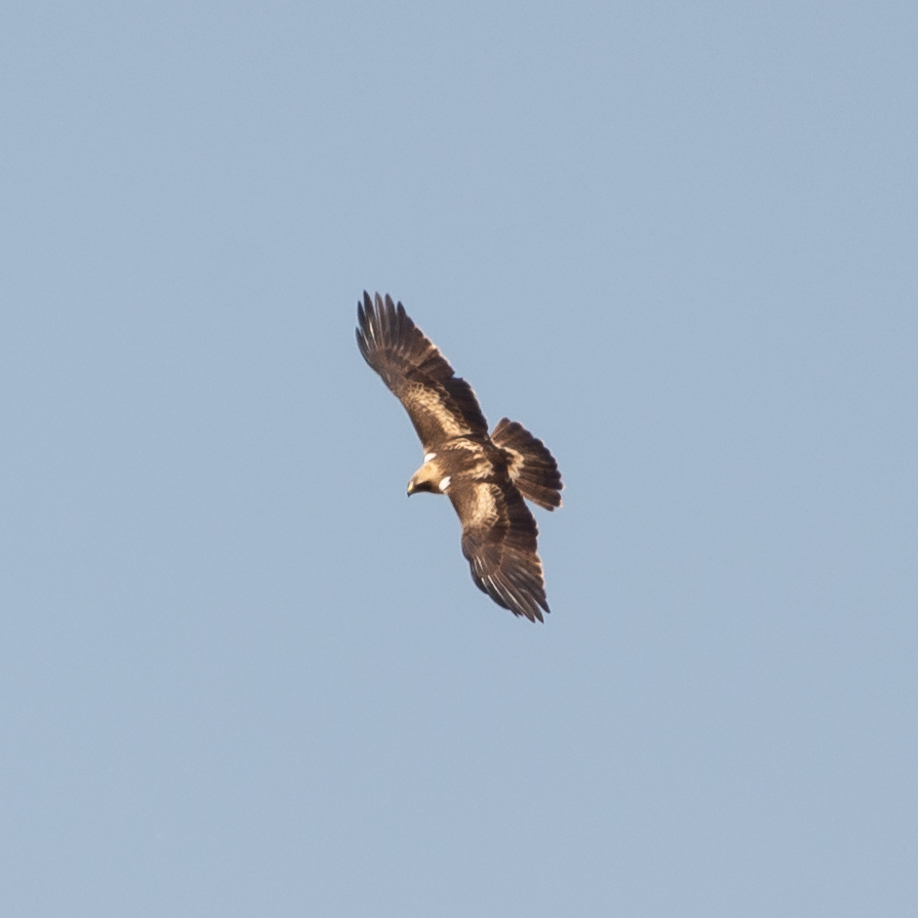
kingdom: Animalia
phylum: Chordata
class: Aves
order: Accipitriformes
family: Accipitridae
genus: Hieraaetus
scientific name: Hieraaetus pennatus
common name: Booted eagle
